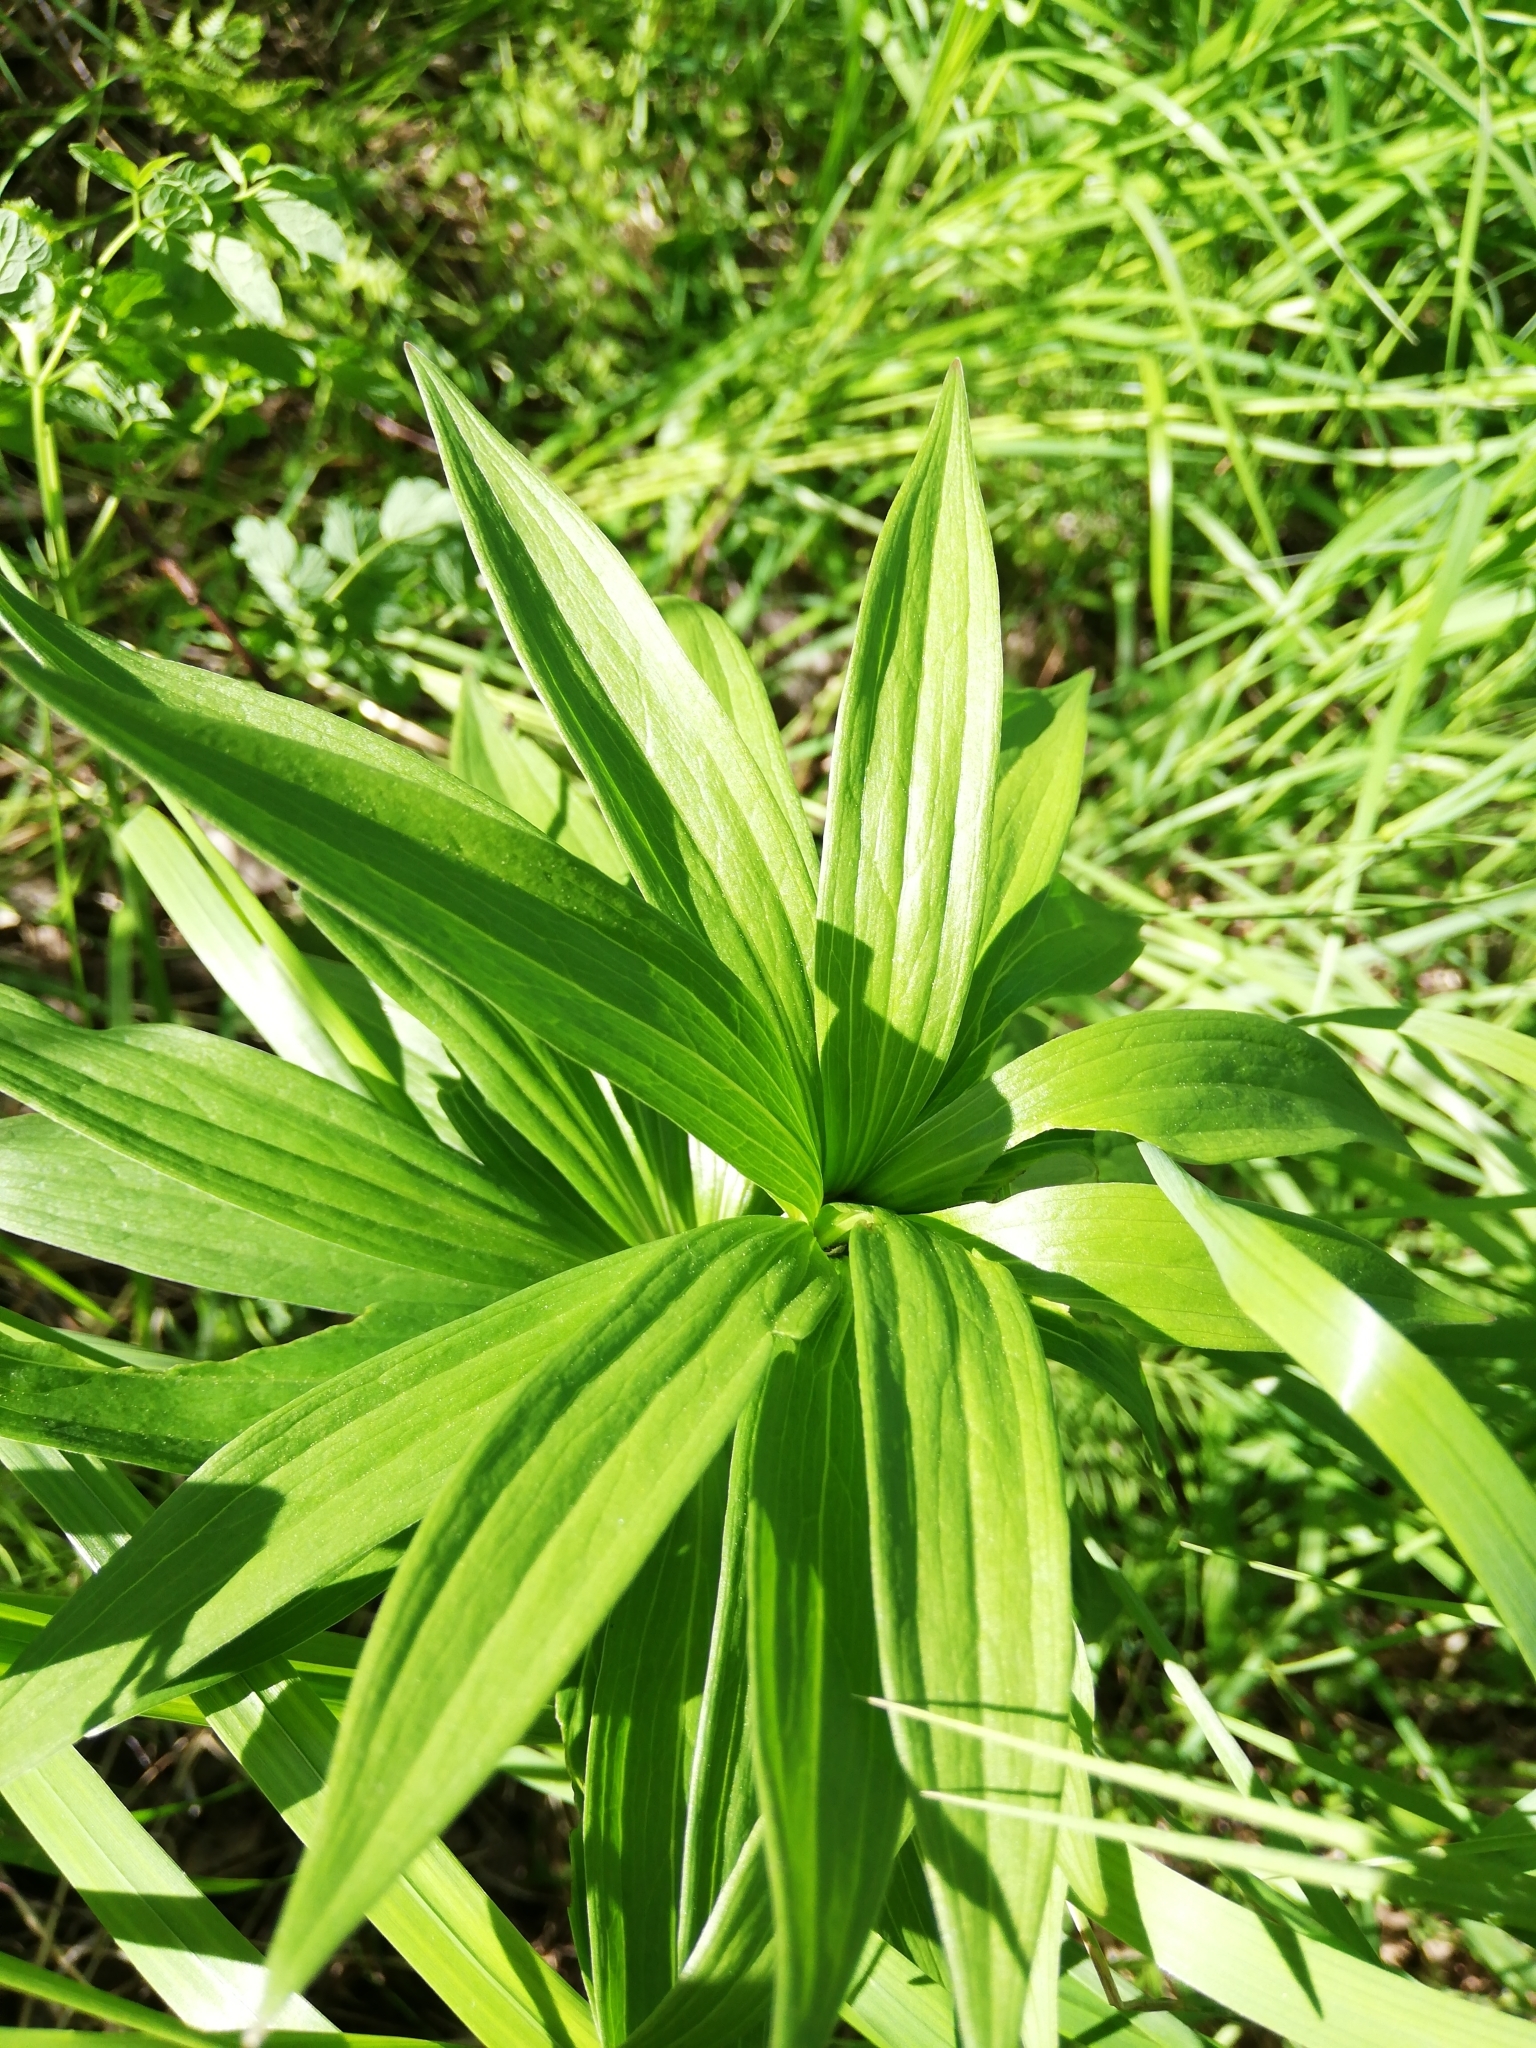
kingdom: Plantae
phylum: Tracheophyta
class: Liliopsida
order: Liliales
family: Liliaceae
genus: Lilium
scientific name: Lilium martagon
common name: Martagon lily
